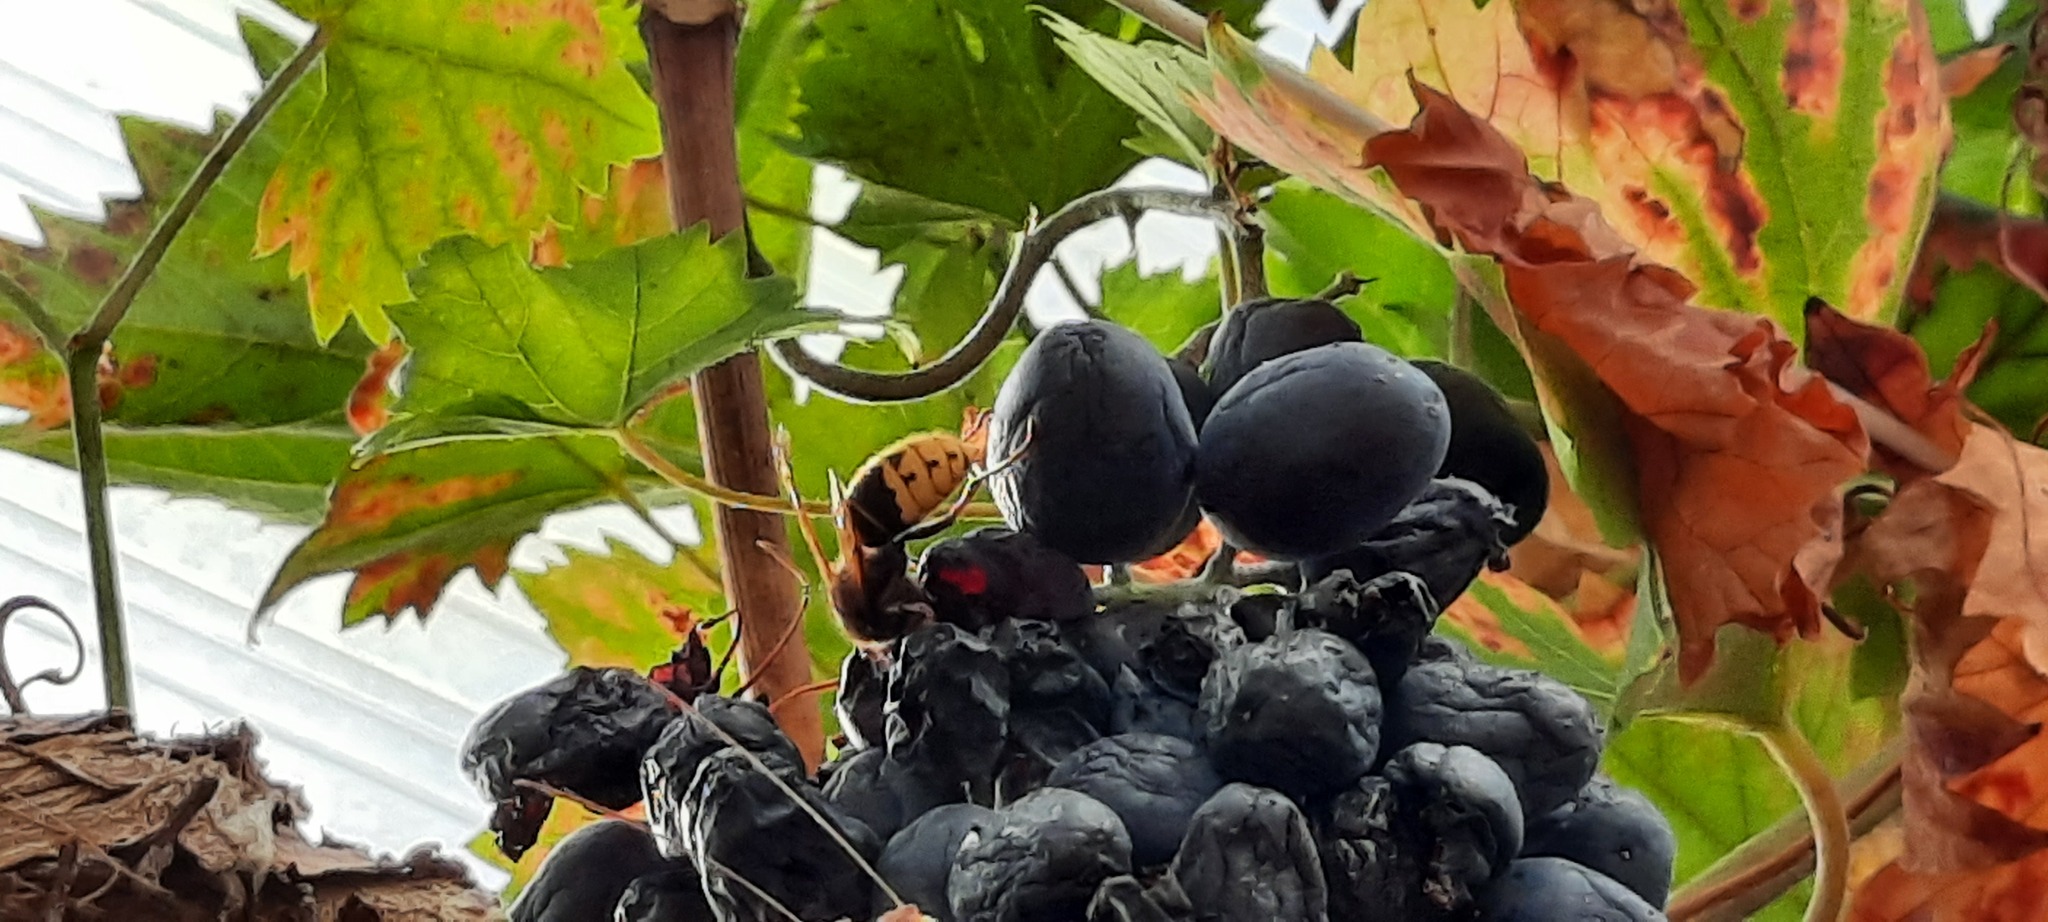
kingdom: Animalia
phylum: Arthropoda
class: Insecta
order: Hymenoptera
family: Vespidae
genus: Vespa
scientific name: Vespa crabro
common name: Hornet
